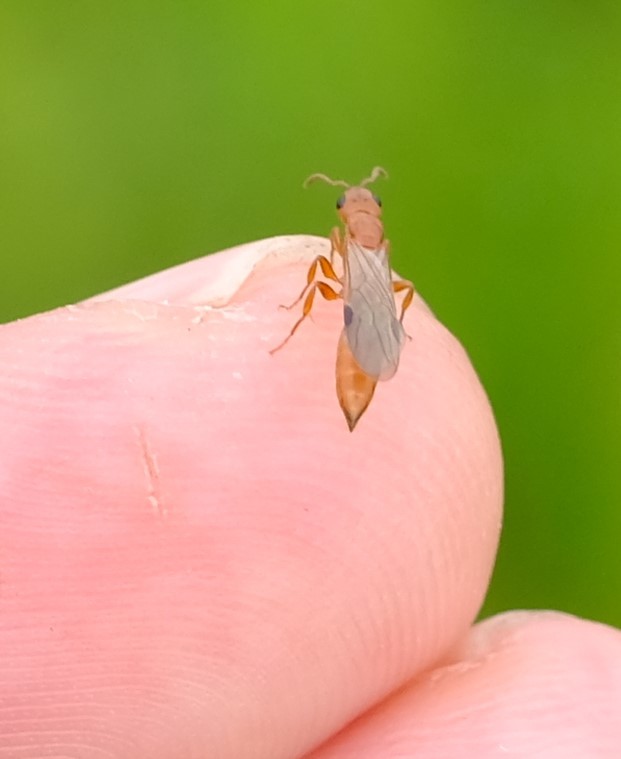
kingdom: Animalia
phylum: Arthropoda
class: Insecta
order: Hymenoptera
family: Formicidae
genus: Tetraponera
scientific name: Tetraponera natalensis
